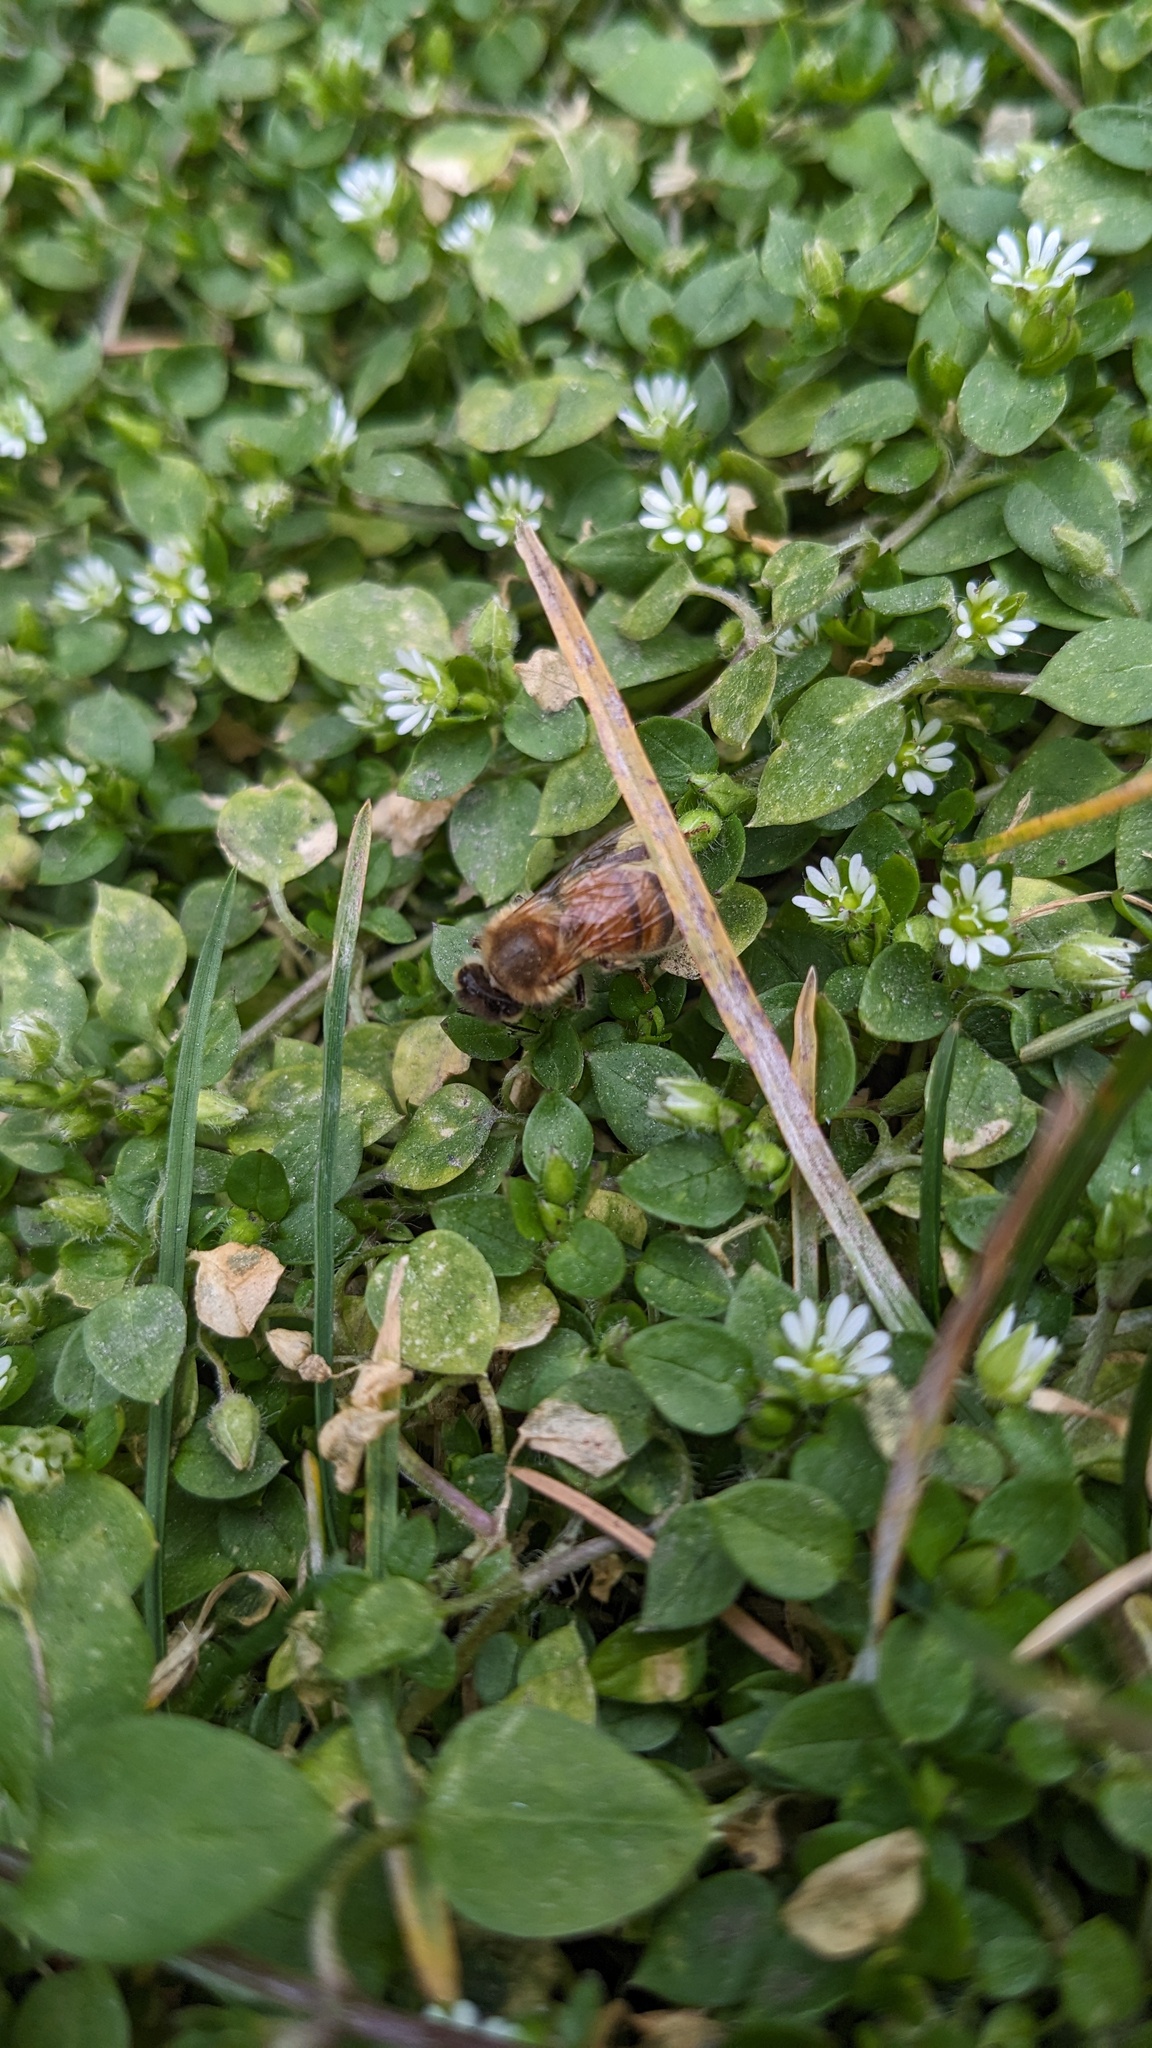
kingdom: Animalia
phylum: Arthropoda
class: Insecta
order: Hymenoptera
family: Apidae
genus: Apis
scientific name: Apis mellifera
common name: Honey bee
